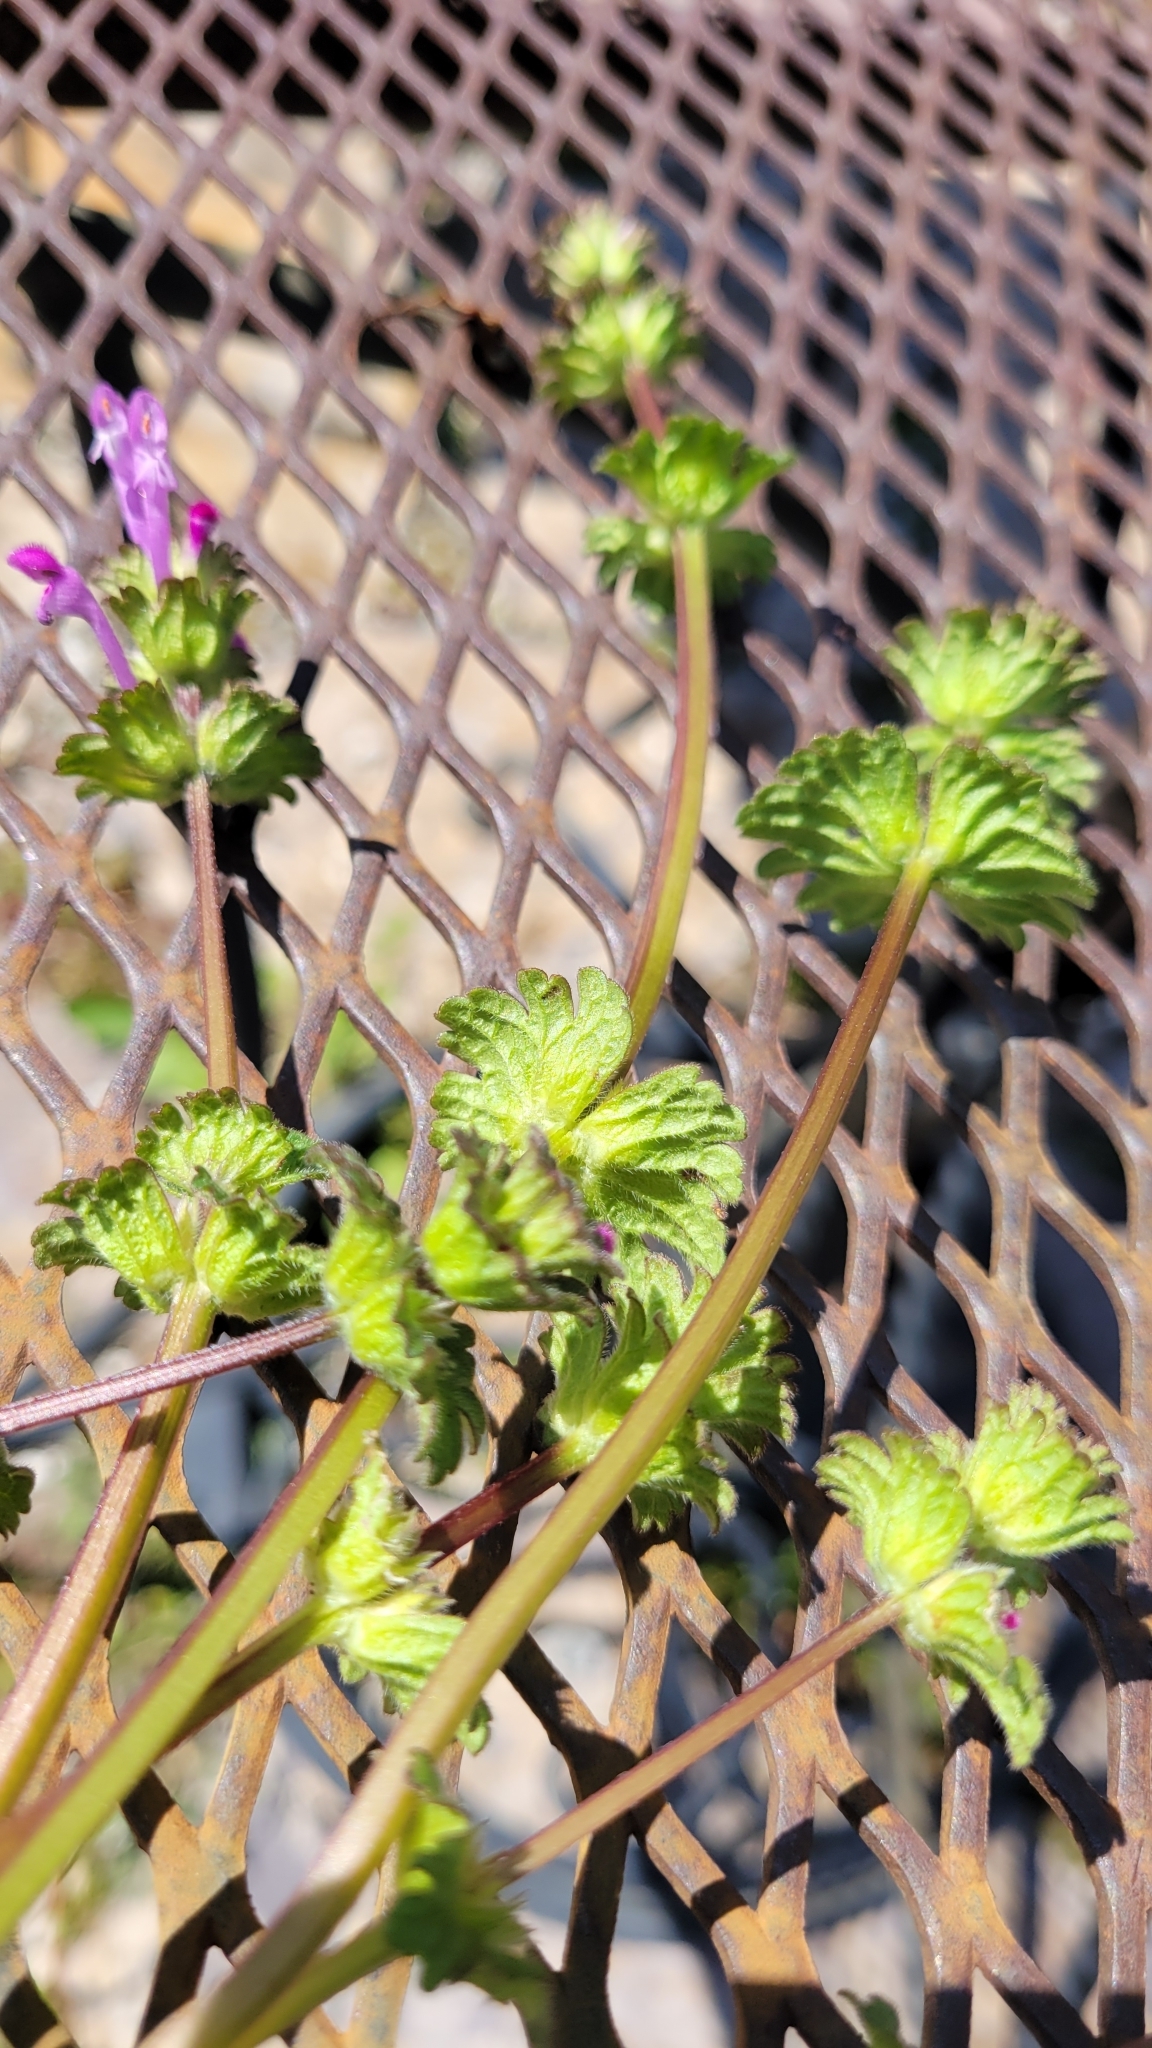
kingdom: Plantae
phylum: Tracheophyta
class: Magnoliopsida
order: Lamiales
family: Lamiaceae
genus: Lamium
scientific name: Lamium amplexicaule
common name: Henbit dead-nettle
